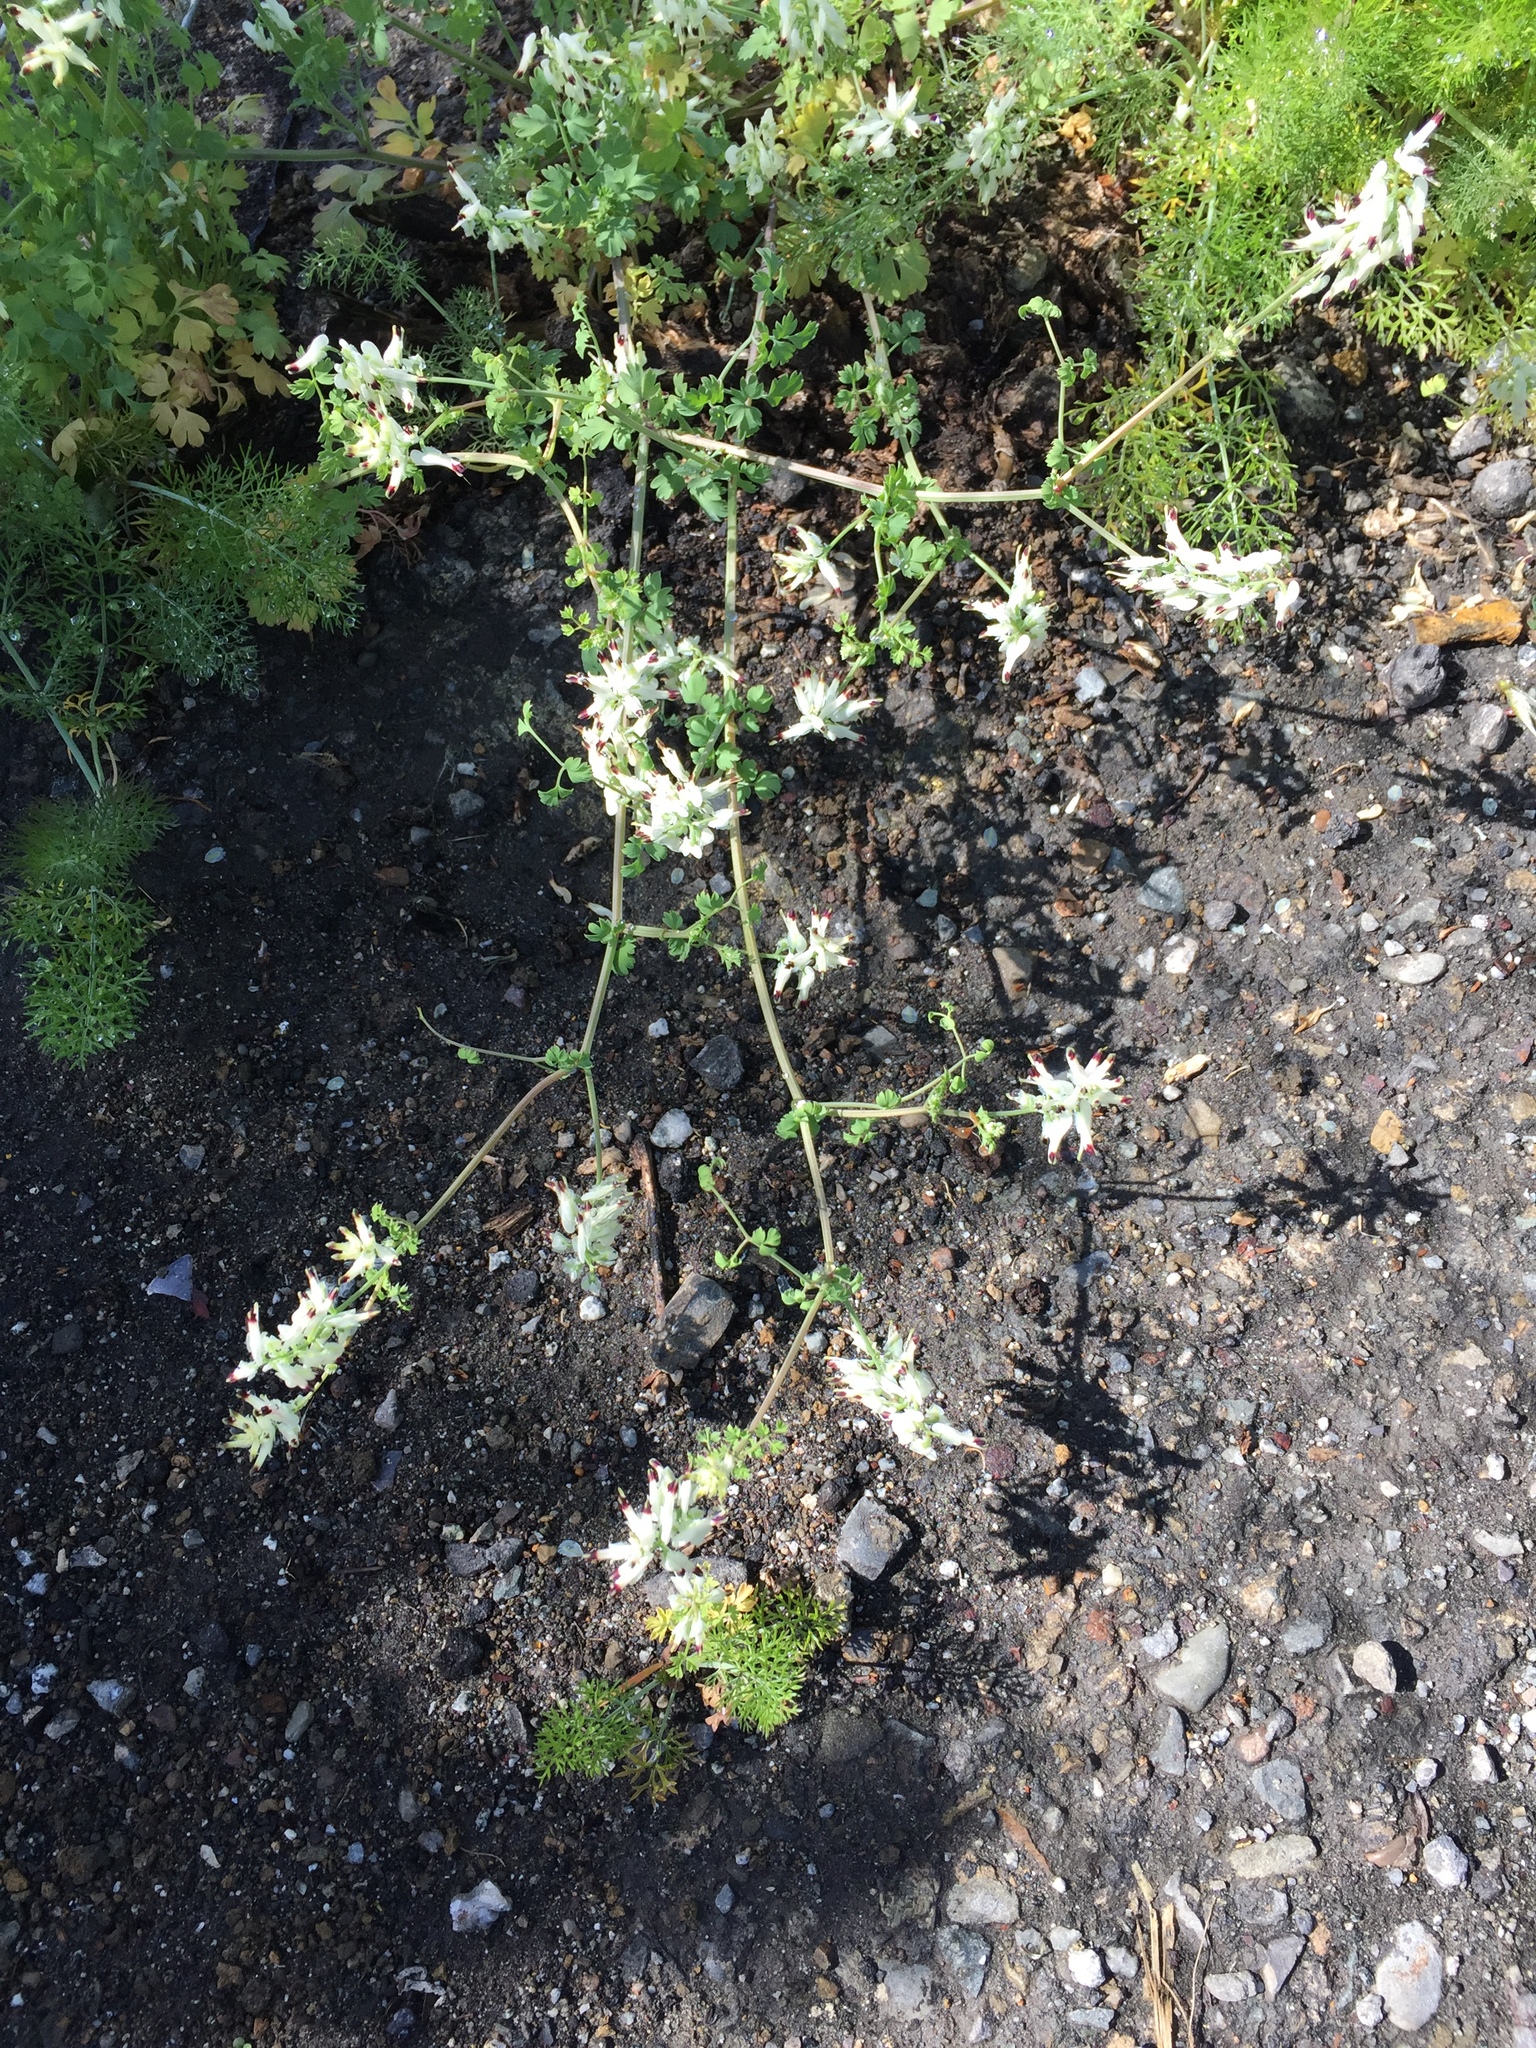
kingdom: Plantae
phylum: Tracheophyta
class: Magnoliopsida
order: Ranunculales
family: Papaveraceae
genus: Fumaria
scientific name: Fumaria capreolata
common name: White ramping-fumitory
